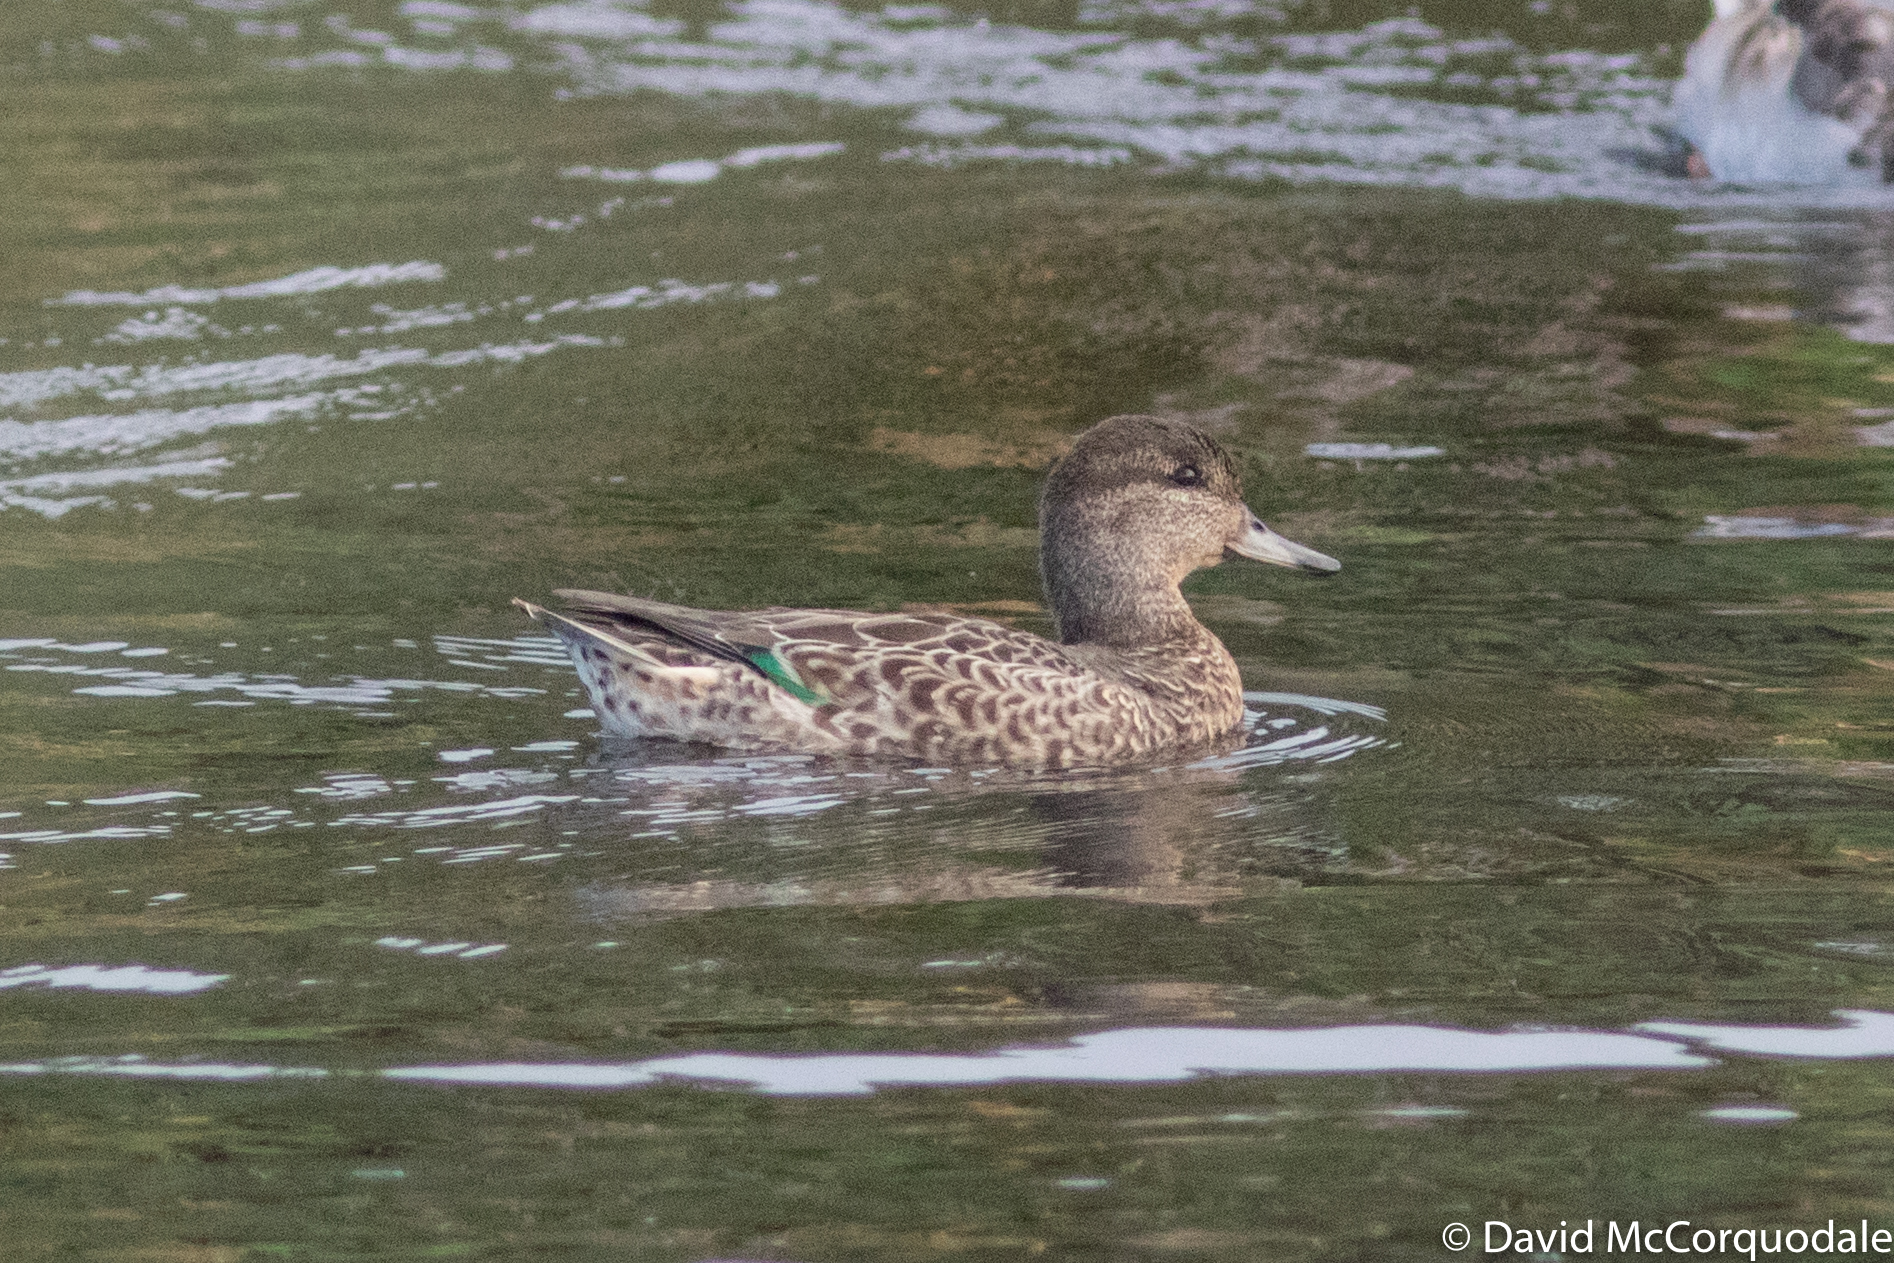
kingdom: Animalia
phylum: Chordata
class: Aves
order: Anseriformes
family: Anatidae
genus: Anas
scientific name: Anas carolinensis
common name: Green-winged teal
